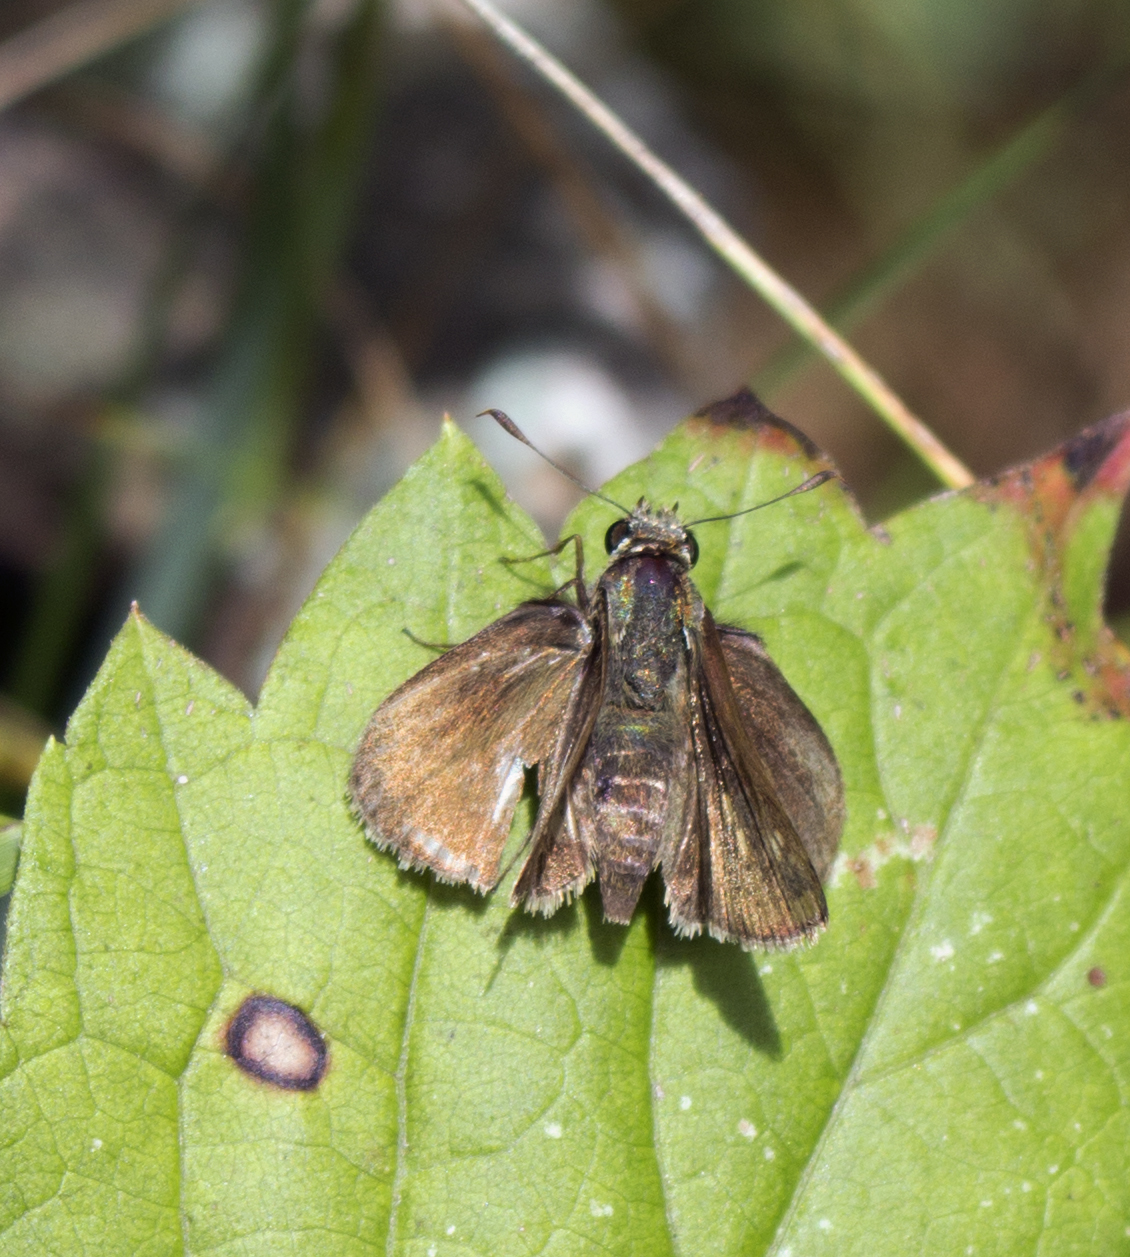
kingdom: Animalia
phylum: Arthropoda
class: Insecta
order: Lepidoptera
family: Hesperiidae
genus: Euphyes
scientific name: Euphyes vestris
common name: Dun skipper
